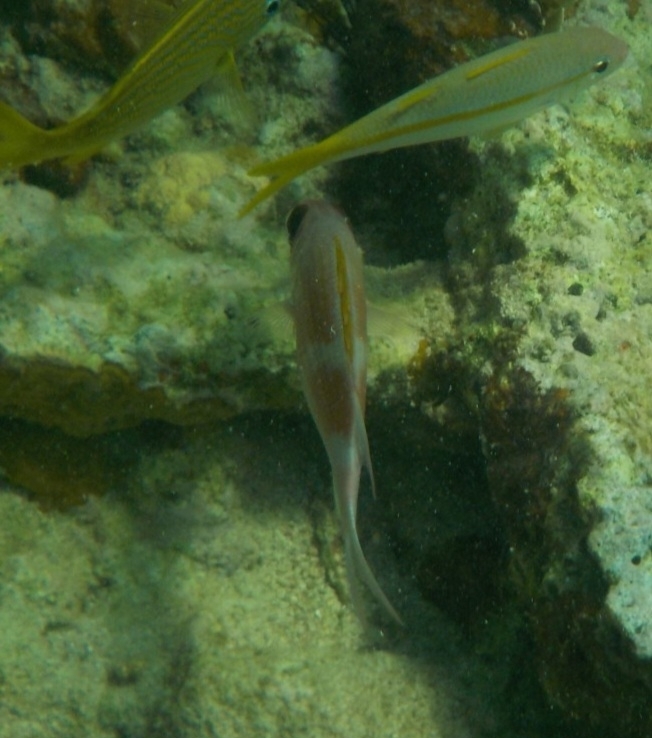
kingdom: Animalia
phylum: Chordata
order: Beryciformes
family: Holocentridae
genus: Holocentrus
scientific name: Holocentrus adscensionis
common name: Squirrelfish
